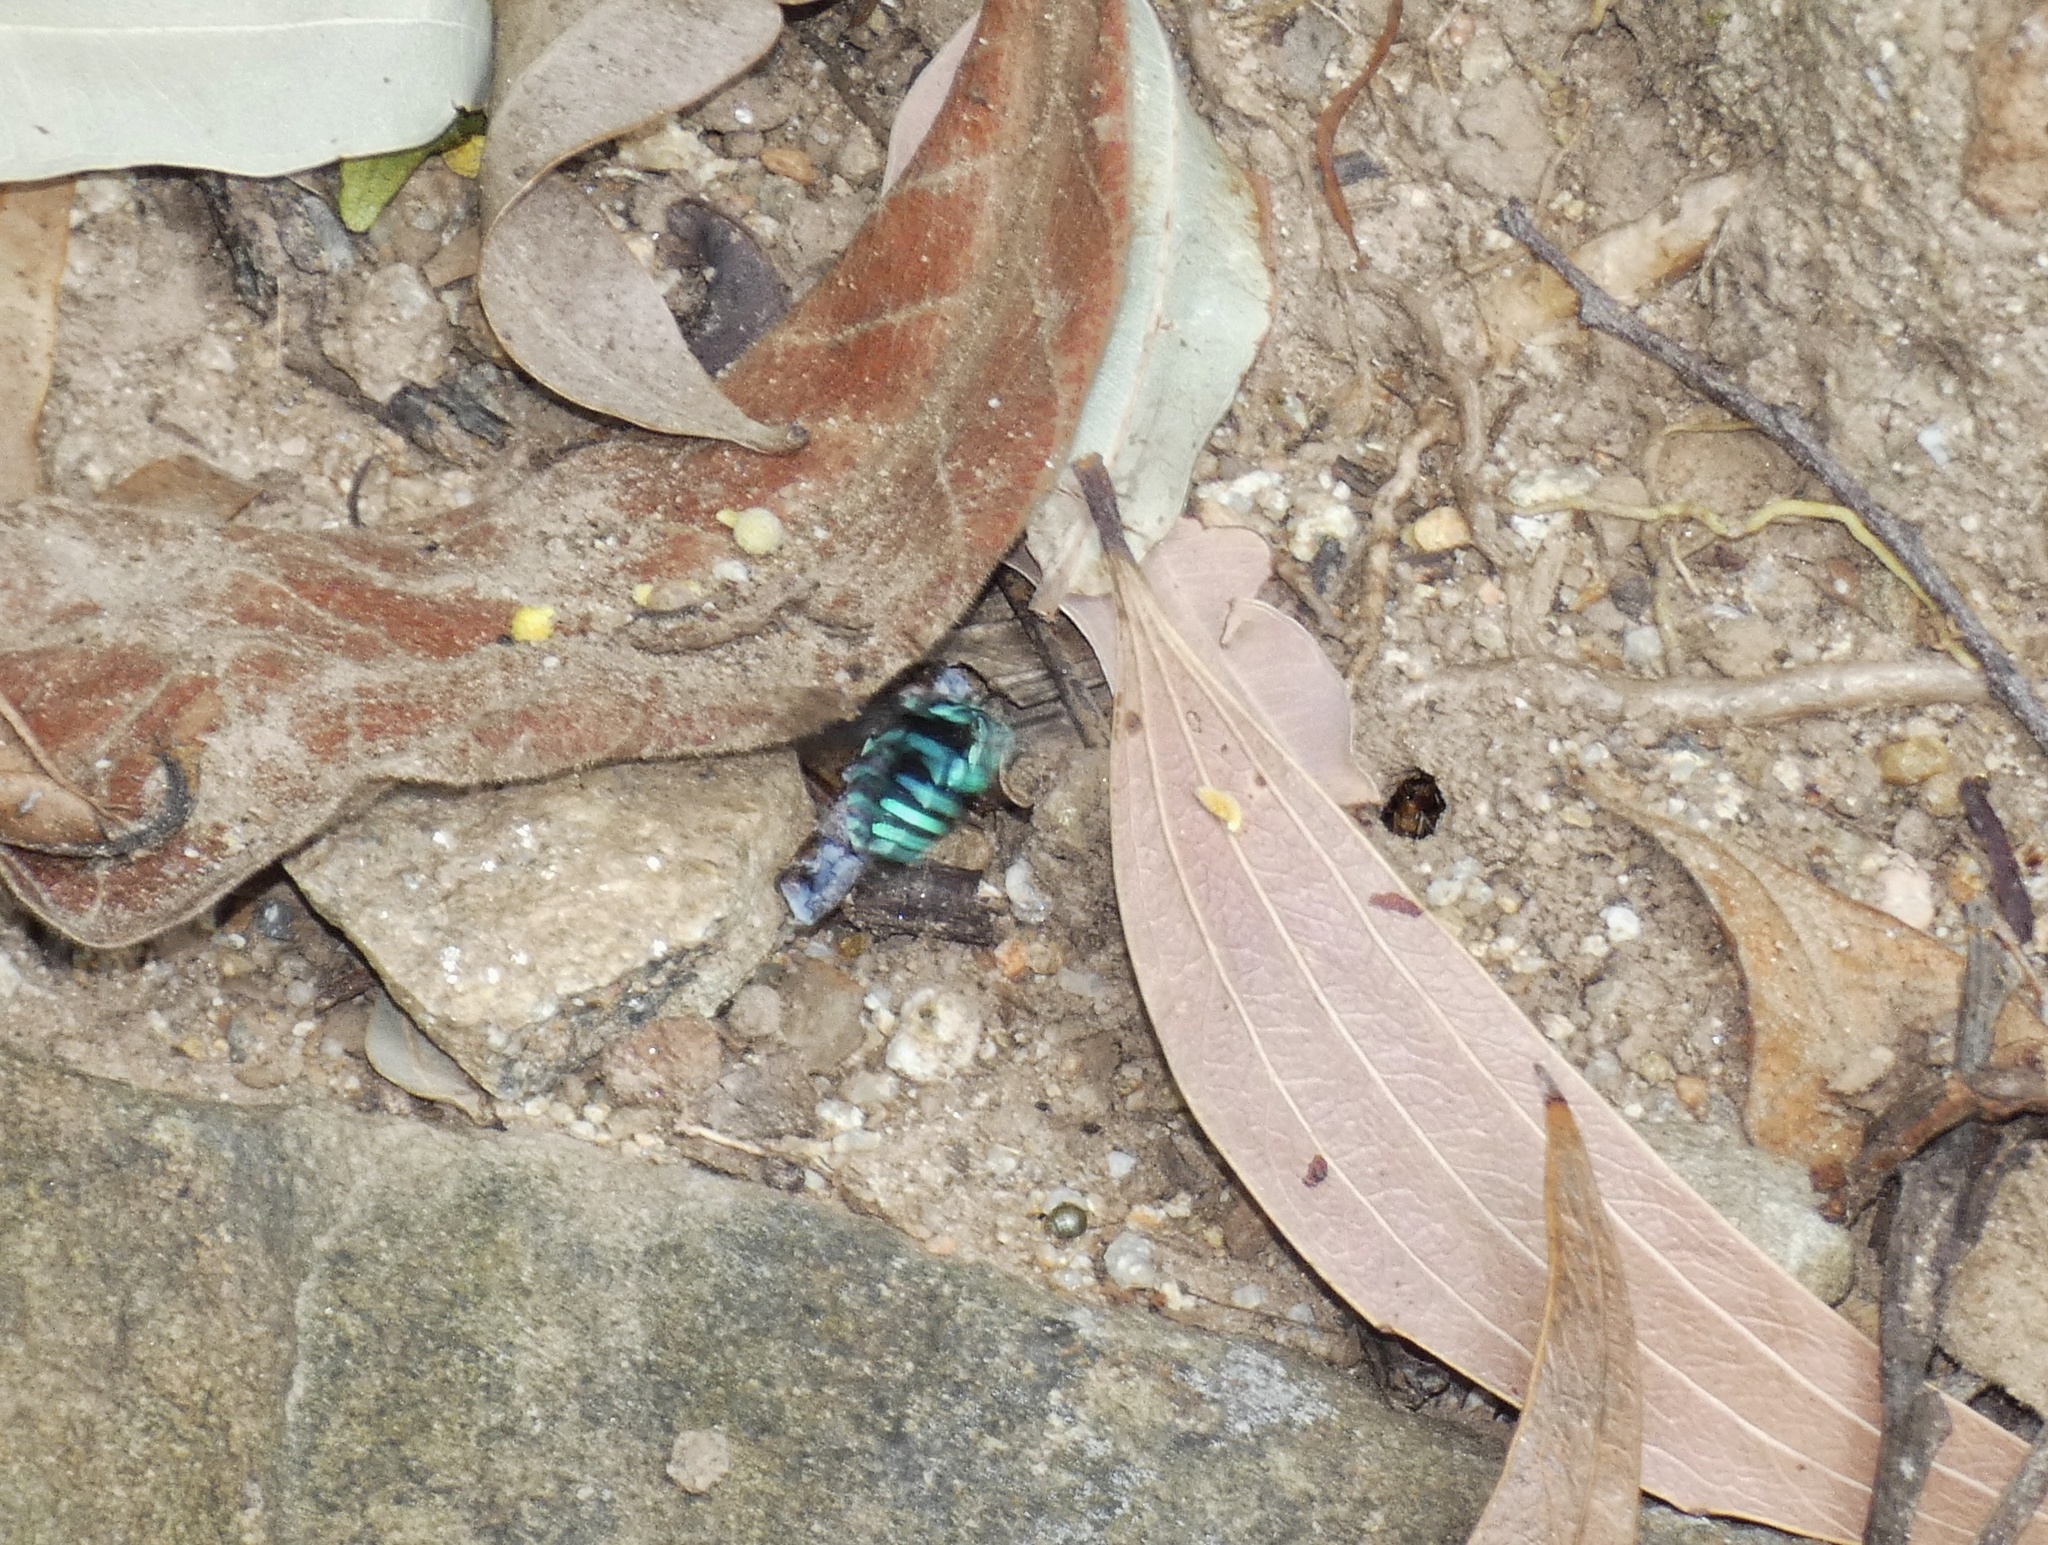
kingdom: Animalia
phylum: Arthropoda
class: Insecta
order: Hymenoptera
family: Apidae
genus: Thyreus
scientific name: Thyreus nitidulus
